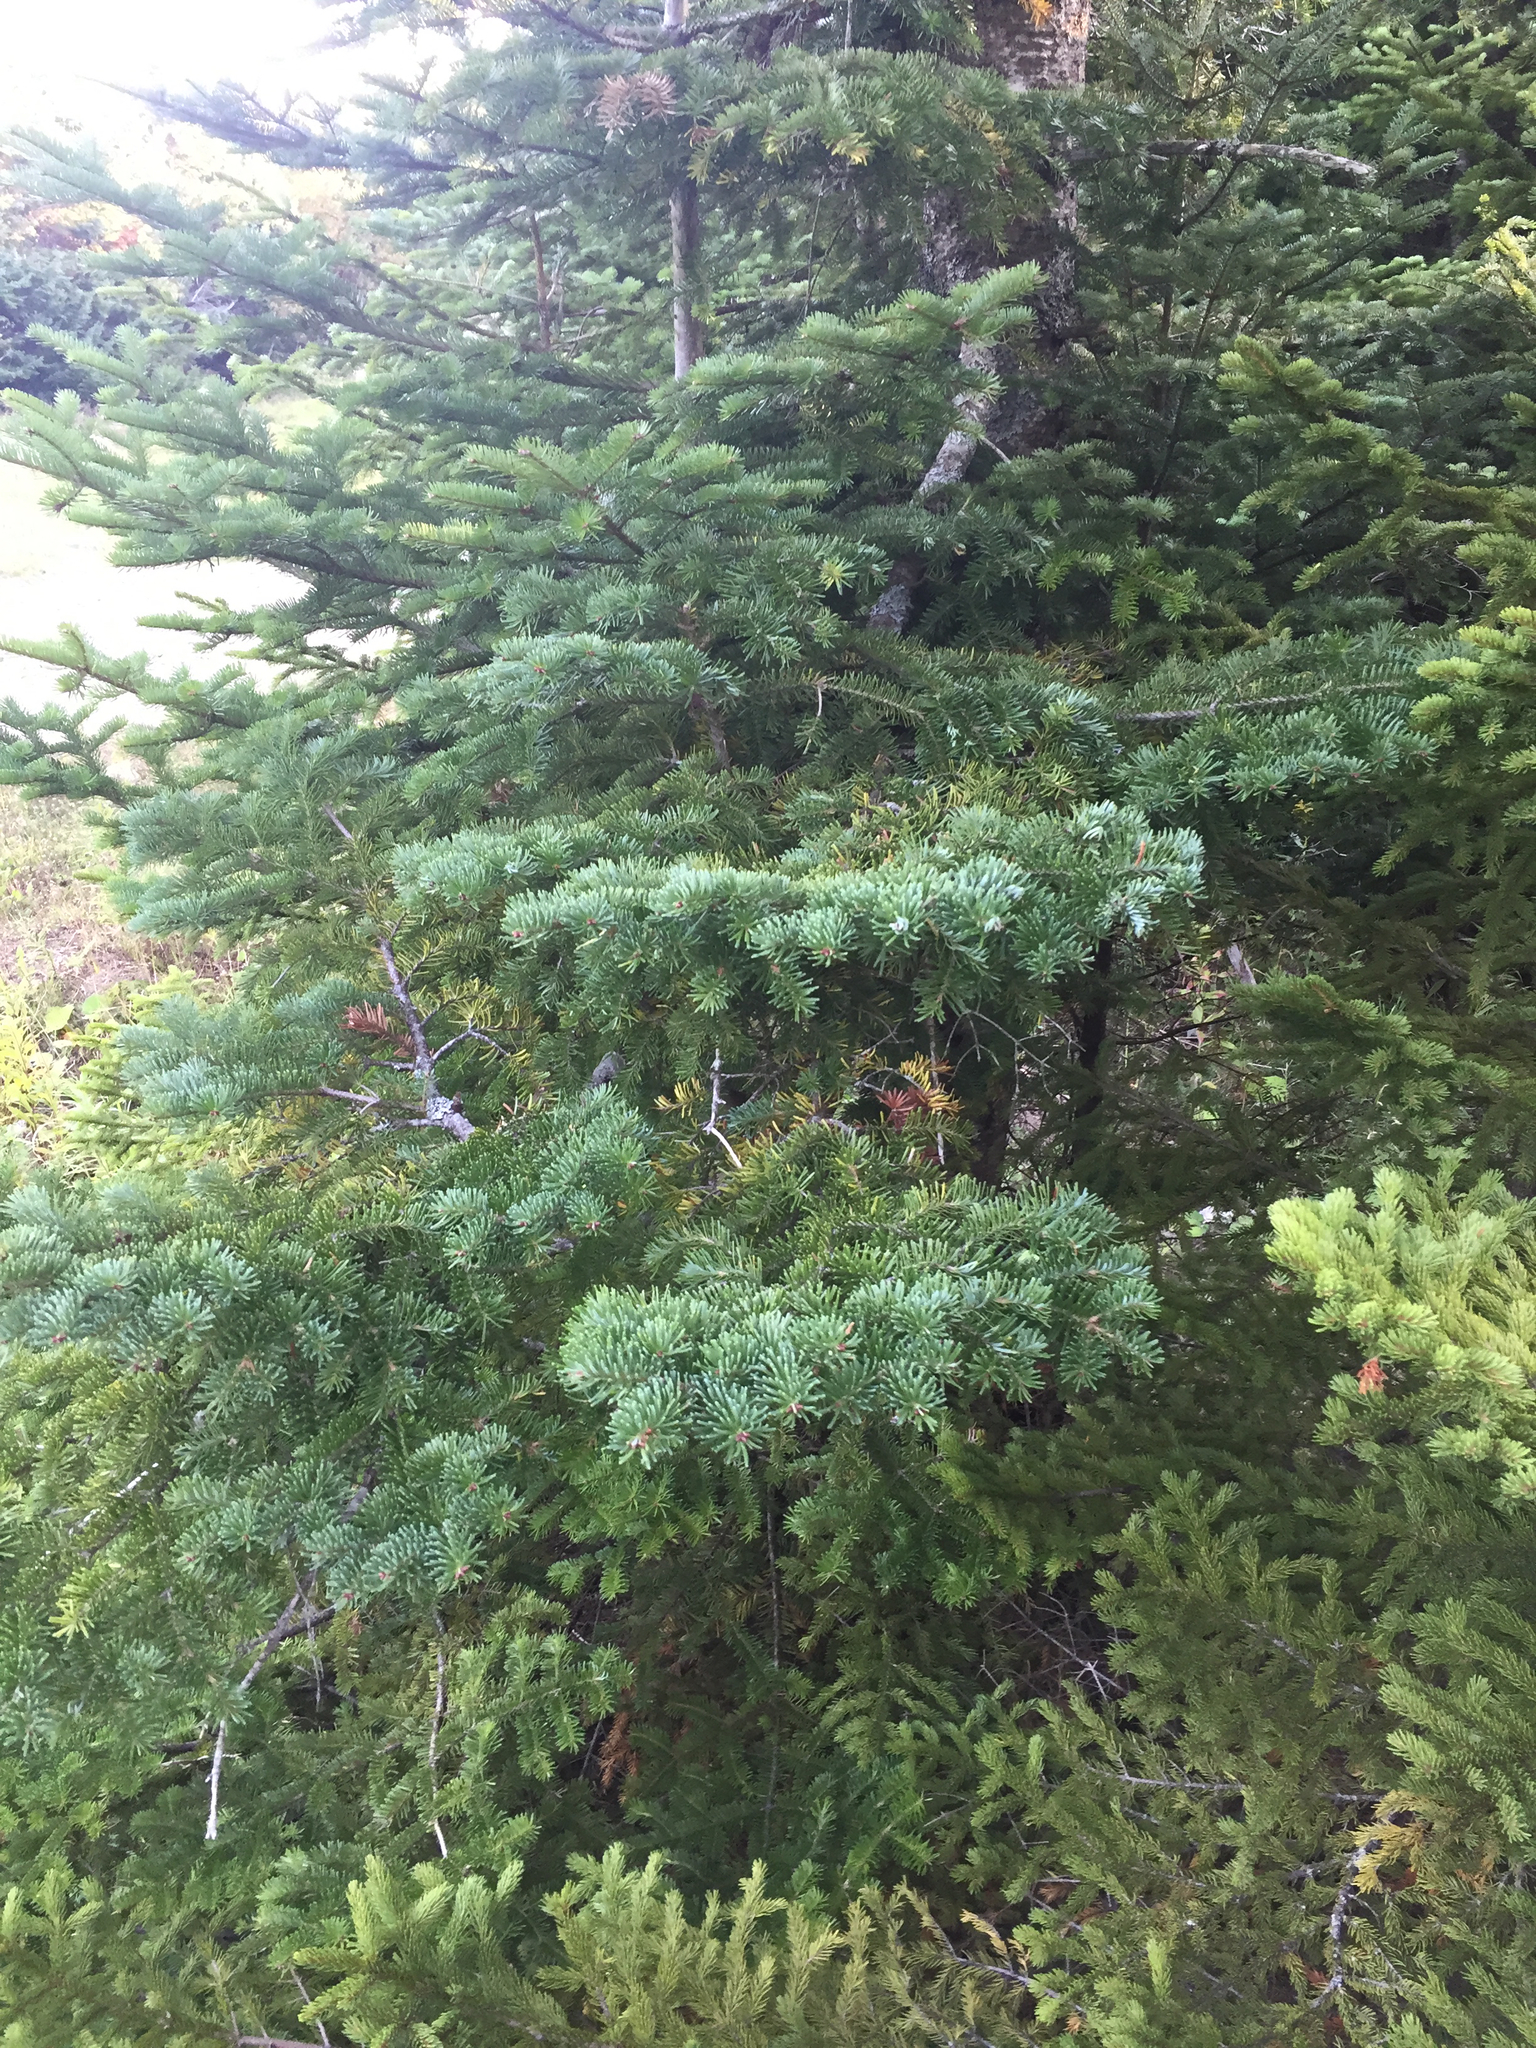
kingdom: Plantae
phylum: Tracheophyta
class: Pinopsida
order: Pinales
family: Pinaceae
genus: Abies
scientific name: Abies balsamea
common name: Balsam fir
